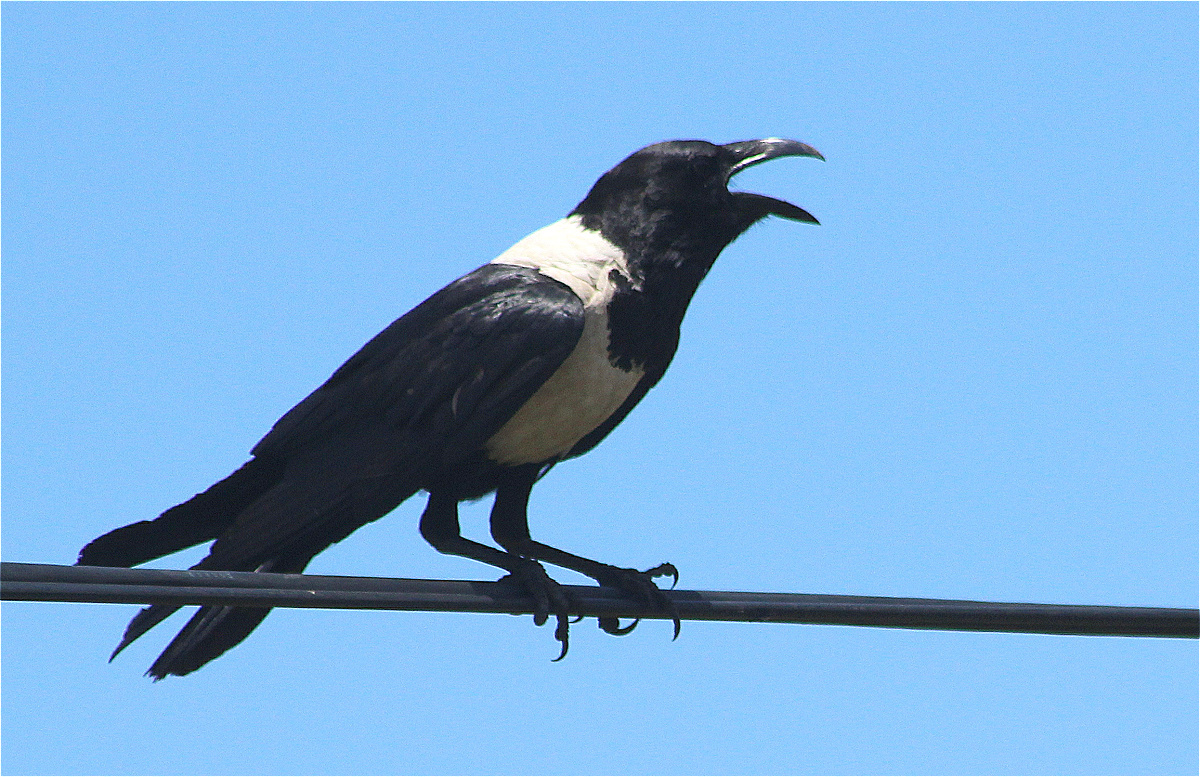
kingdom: Animalia
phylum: Chordata
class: Aves
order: Passeriformes
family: Corvidae
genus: Corvus
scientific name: Corvus albus
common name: Pied crow
